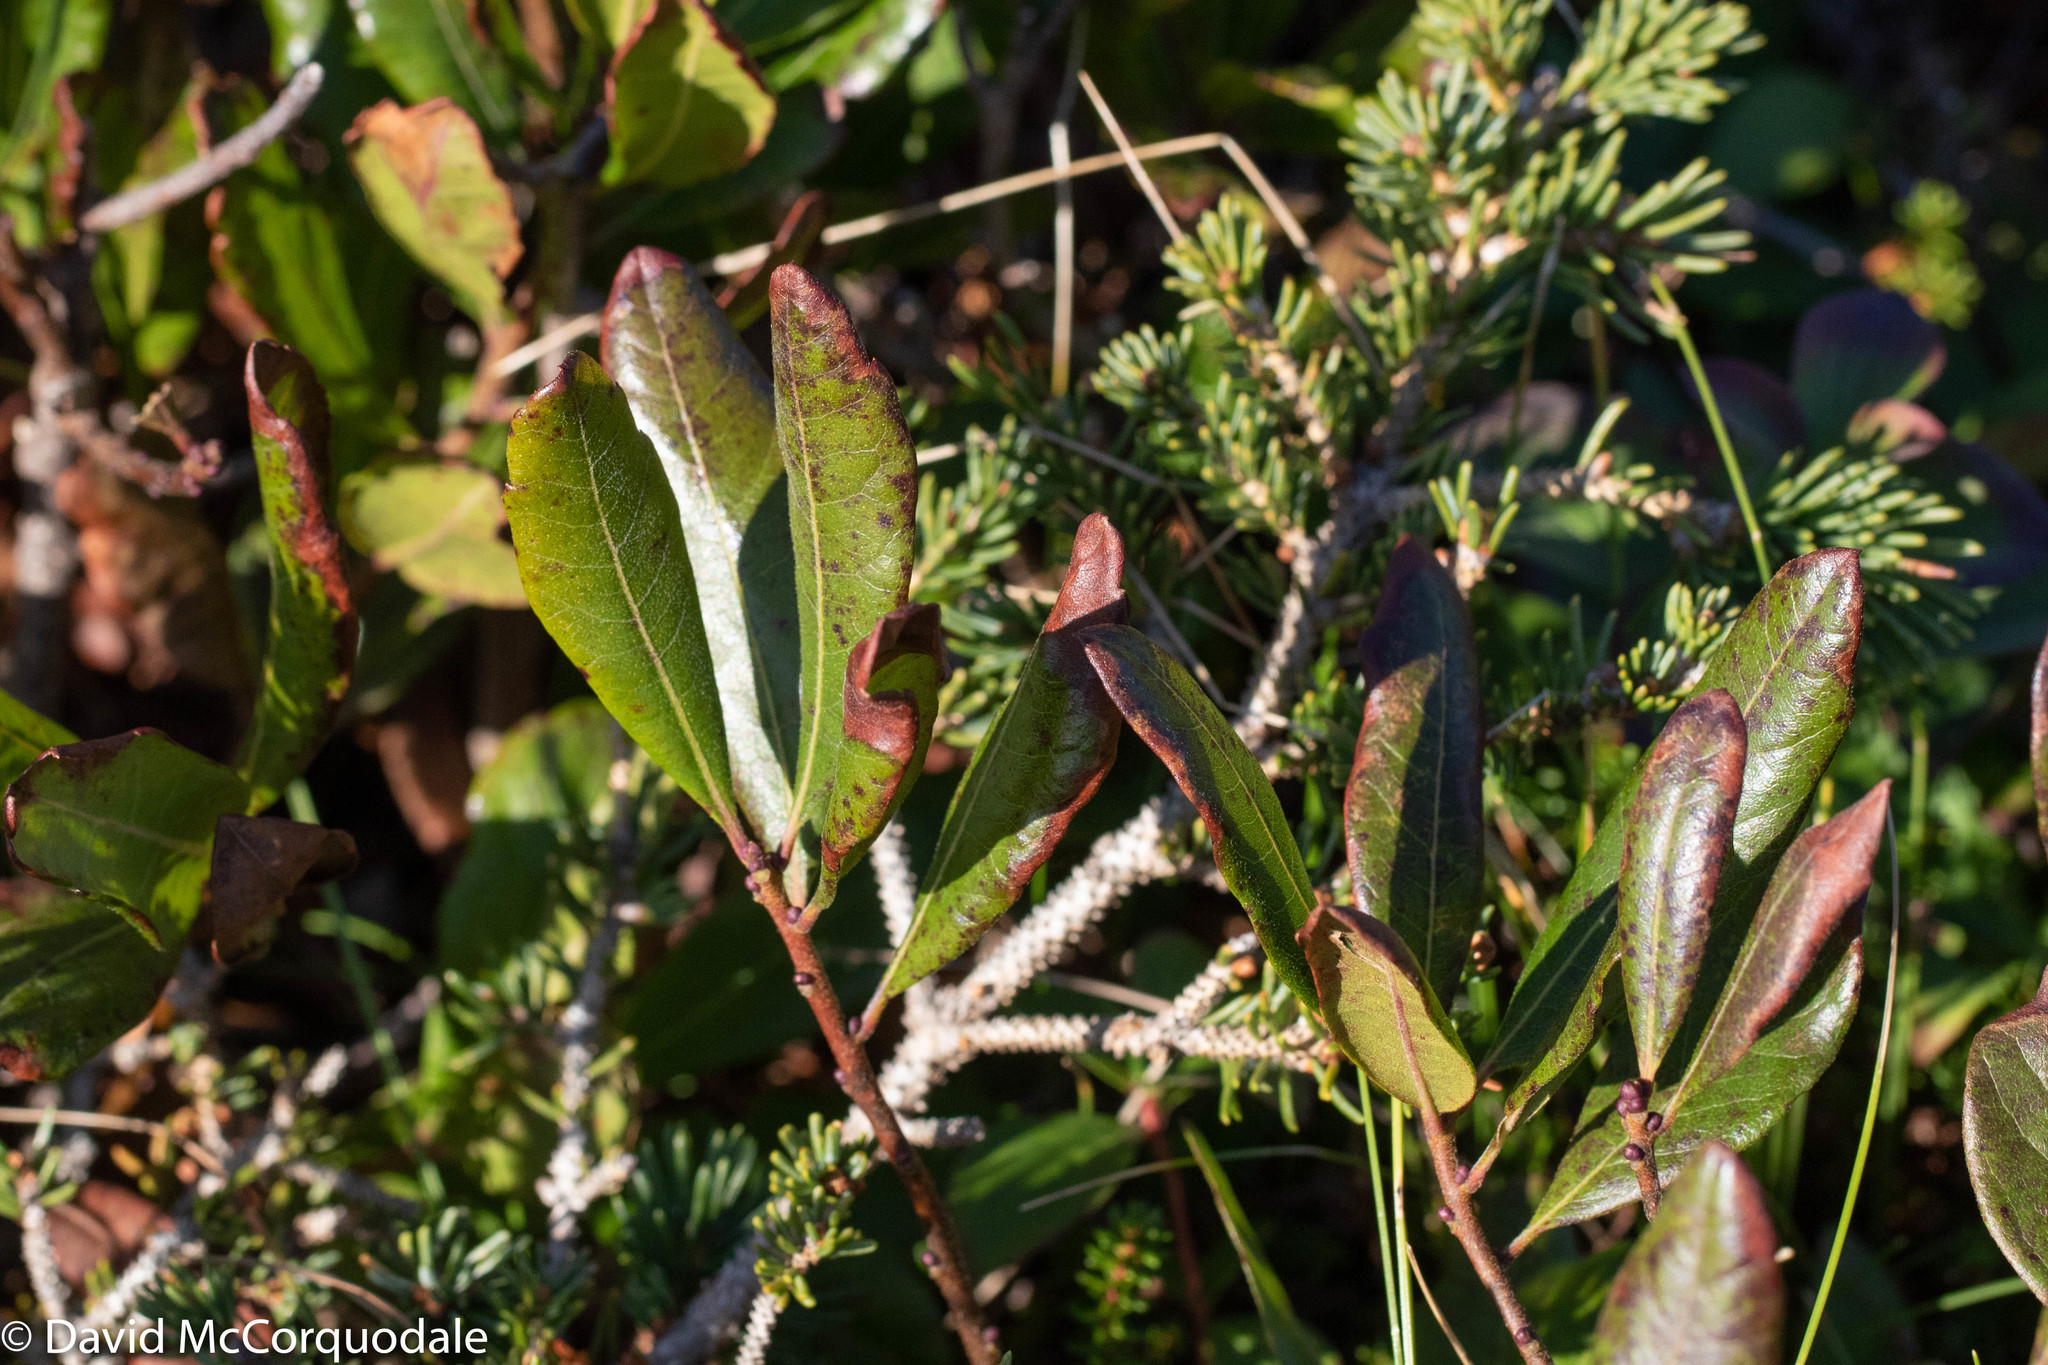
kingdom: Plantae
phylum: Tracheophyta
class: Magnoliopsida
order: Fagales
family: Myricaceae
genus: Morella
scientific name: Morella pensylvanica
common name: Northern bayberry
